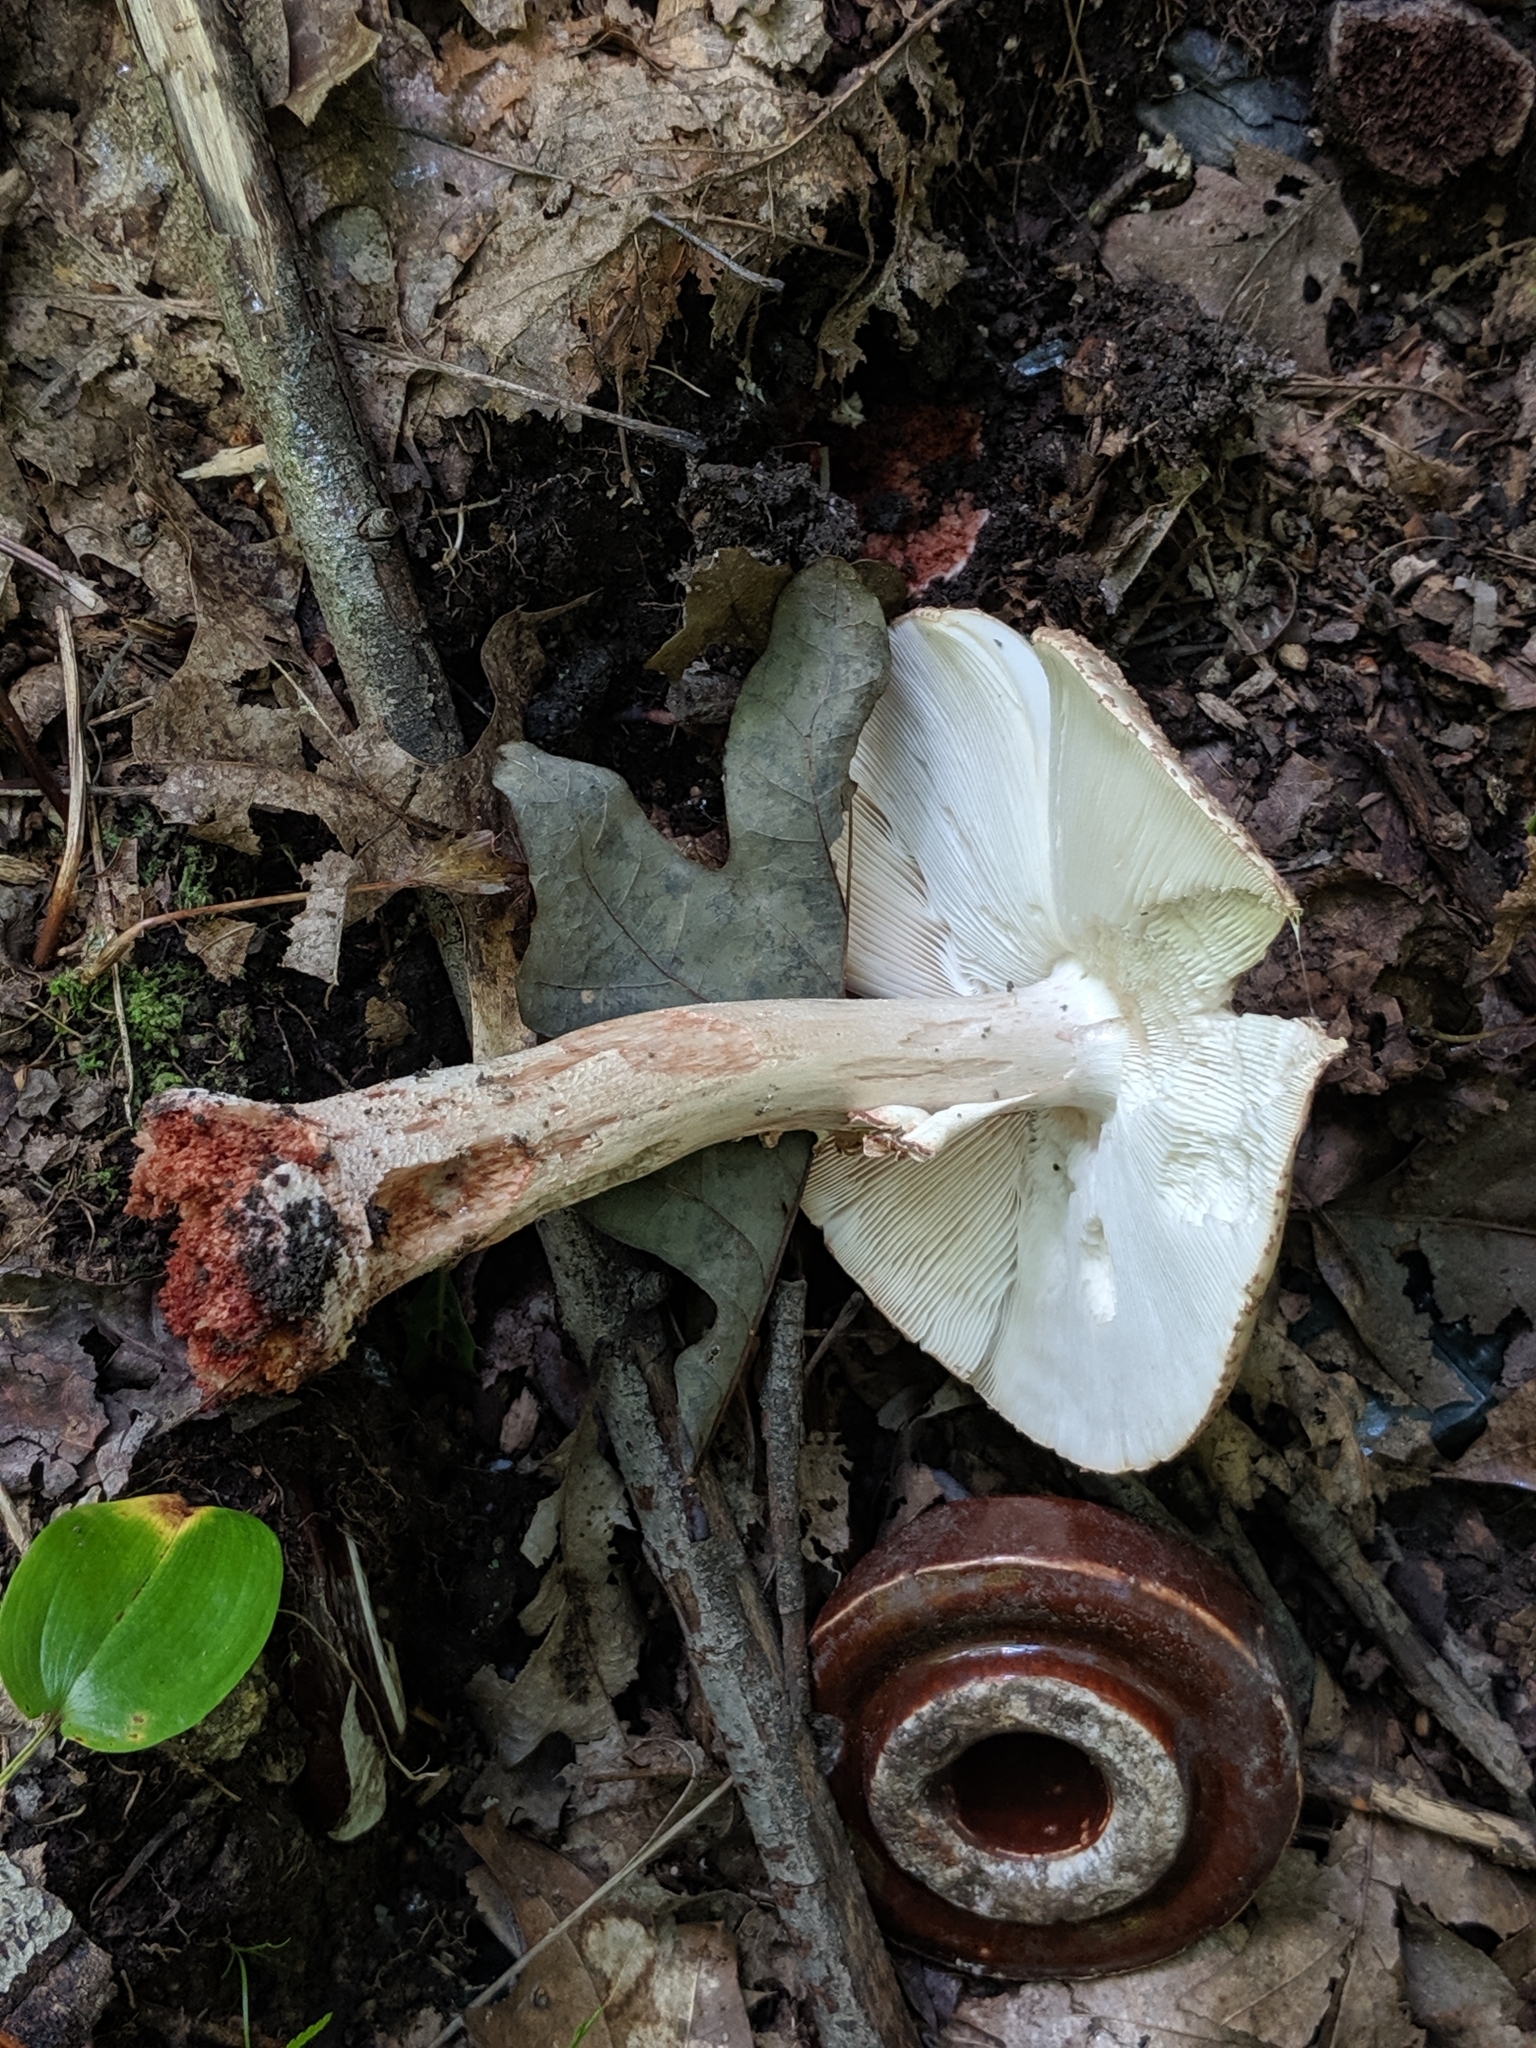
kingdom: Fungi
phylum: Basidiomycota
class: Agaricomycetes
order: Agaricales
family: Amanitaceae
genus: Amanita
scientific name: Amanita rubescens
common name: Blusher
